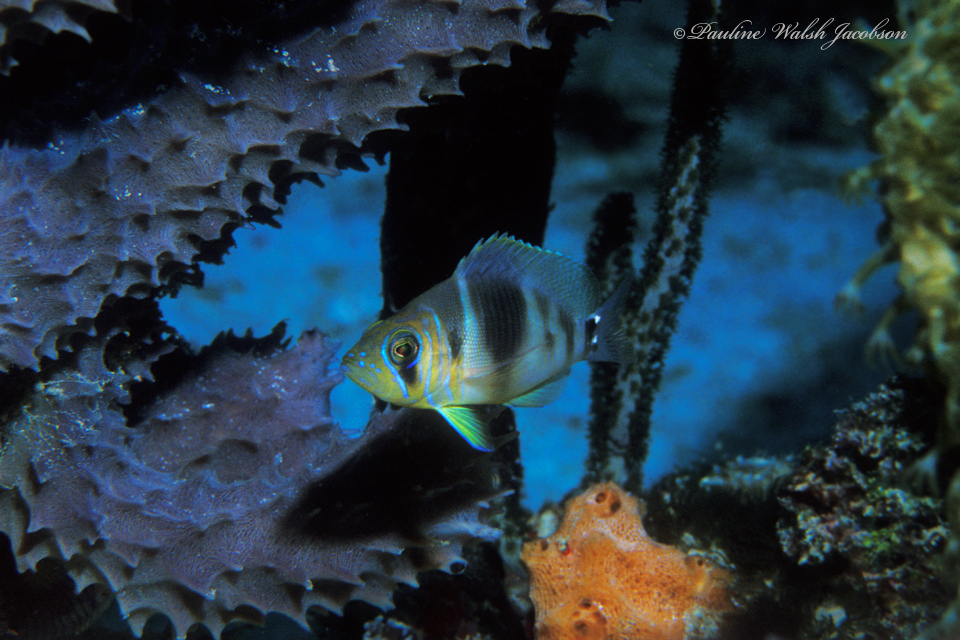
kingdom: Animalia
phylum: Chordata
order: Perciformes
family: Serranidae
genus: Hypoplectrus
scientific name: Hypoplectrus puella
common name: Barred hamlet
